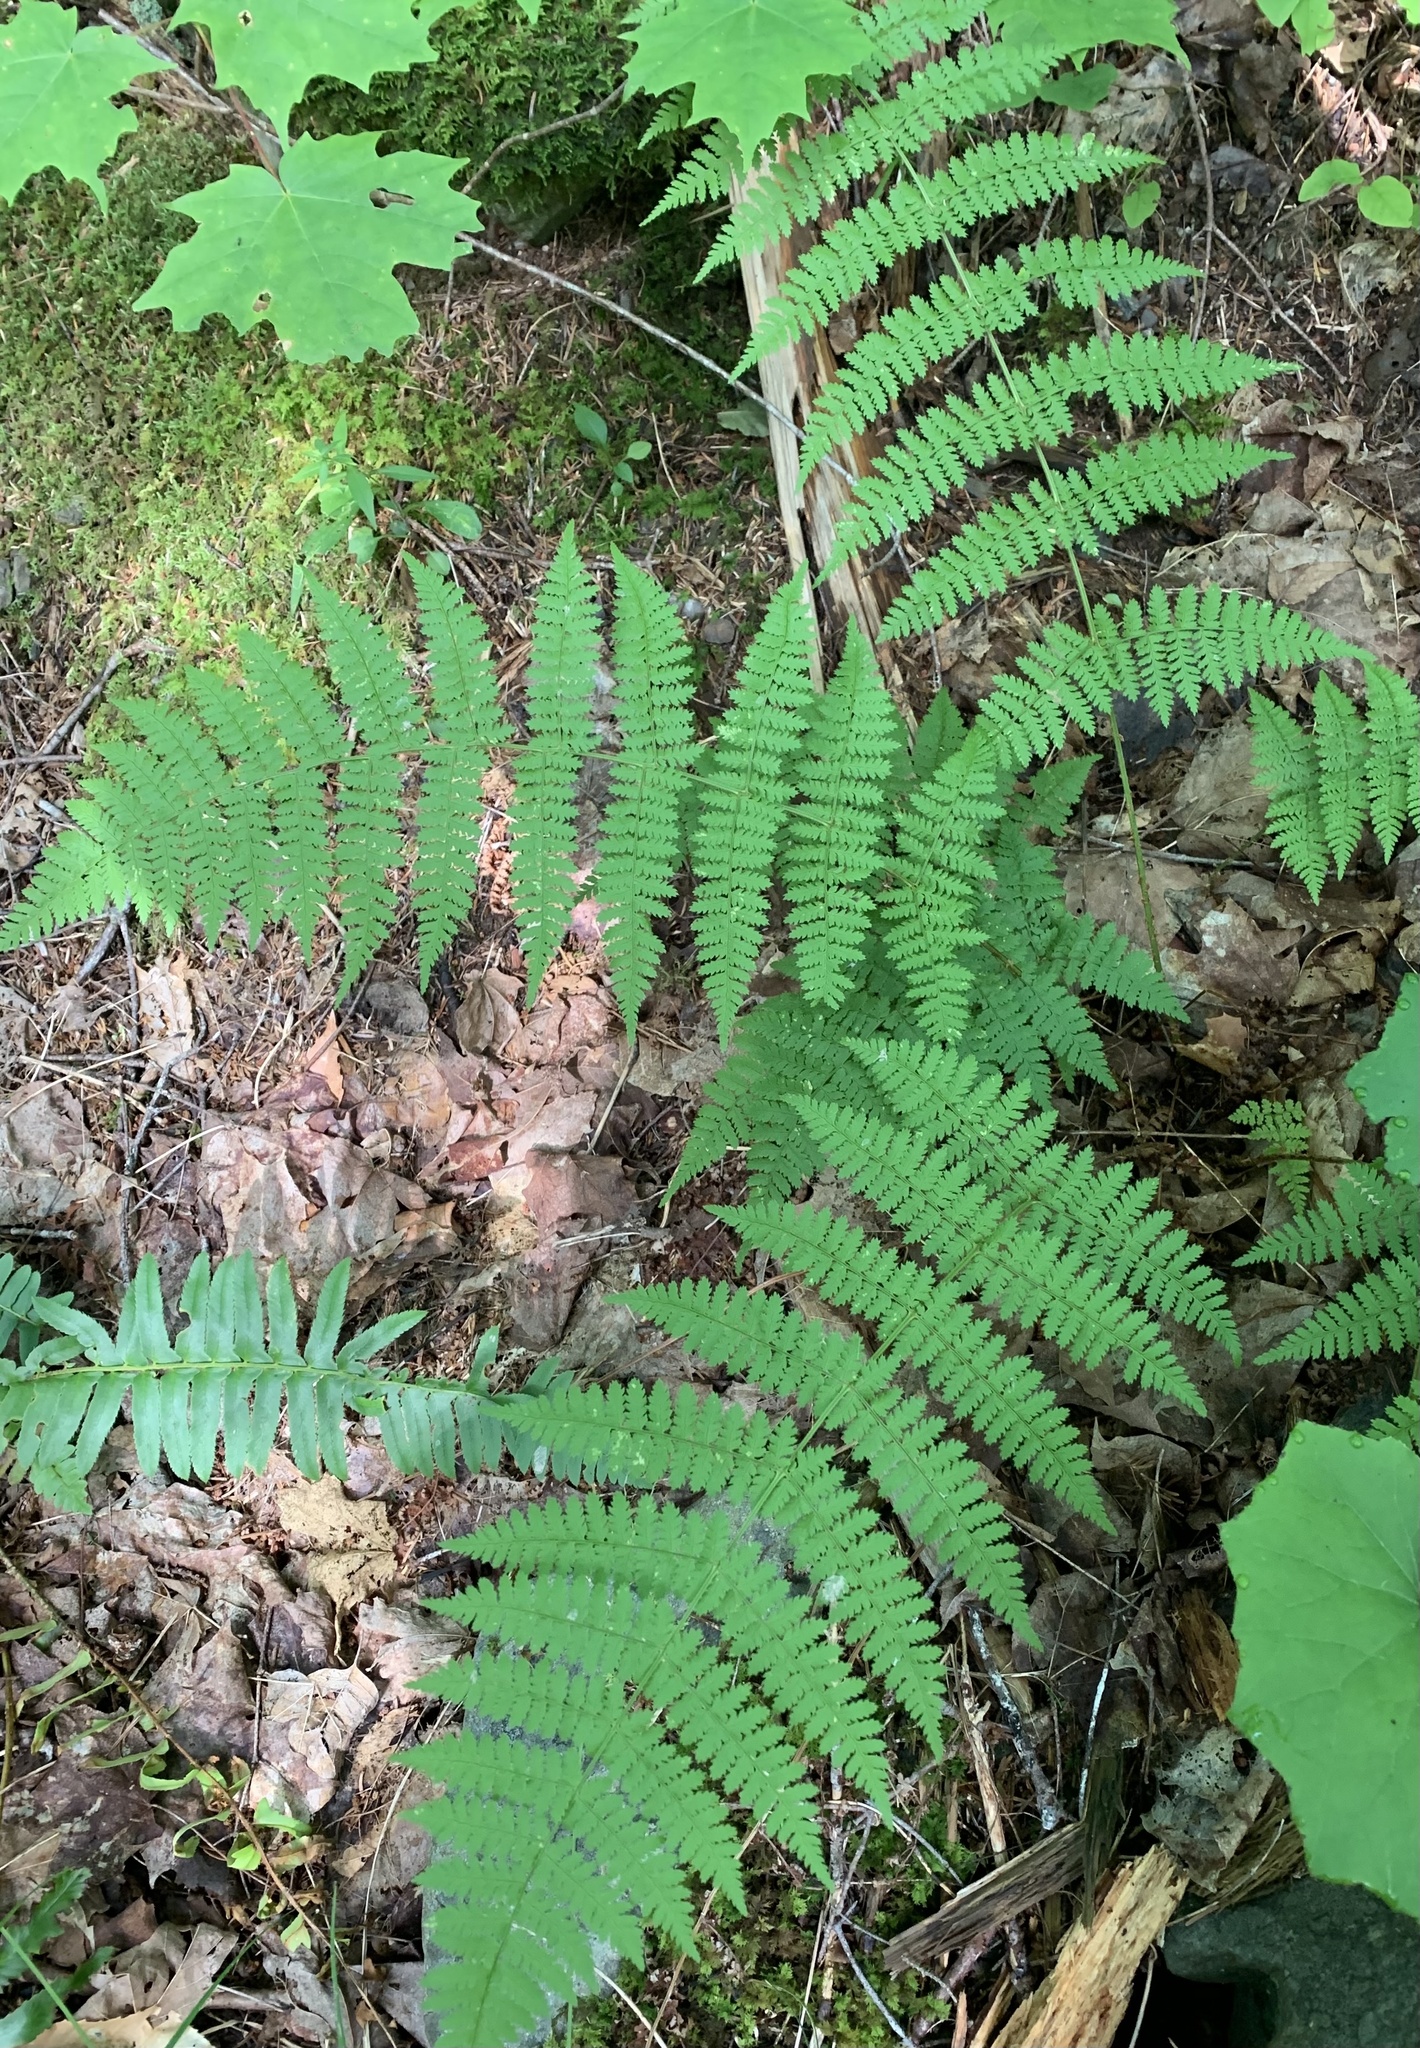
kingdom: Plantae
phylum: Tracheophyta
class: Polypodiopsida
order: Polypodiales
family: Dryopteridaceae
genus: Dryopteris
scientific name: Dryopteris intermedia
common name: Evergreen wood fern
